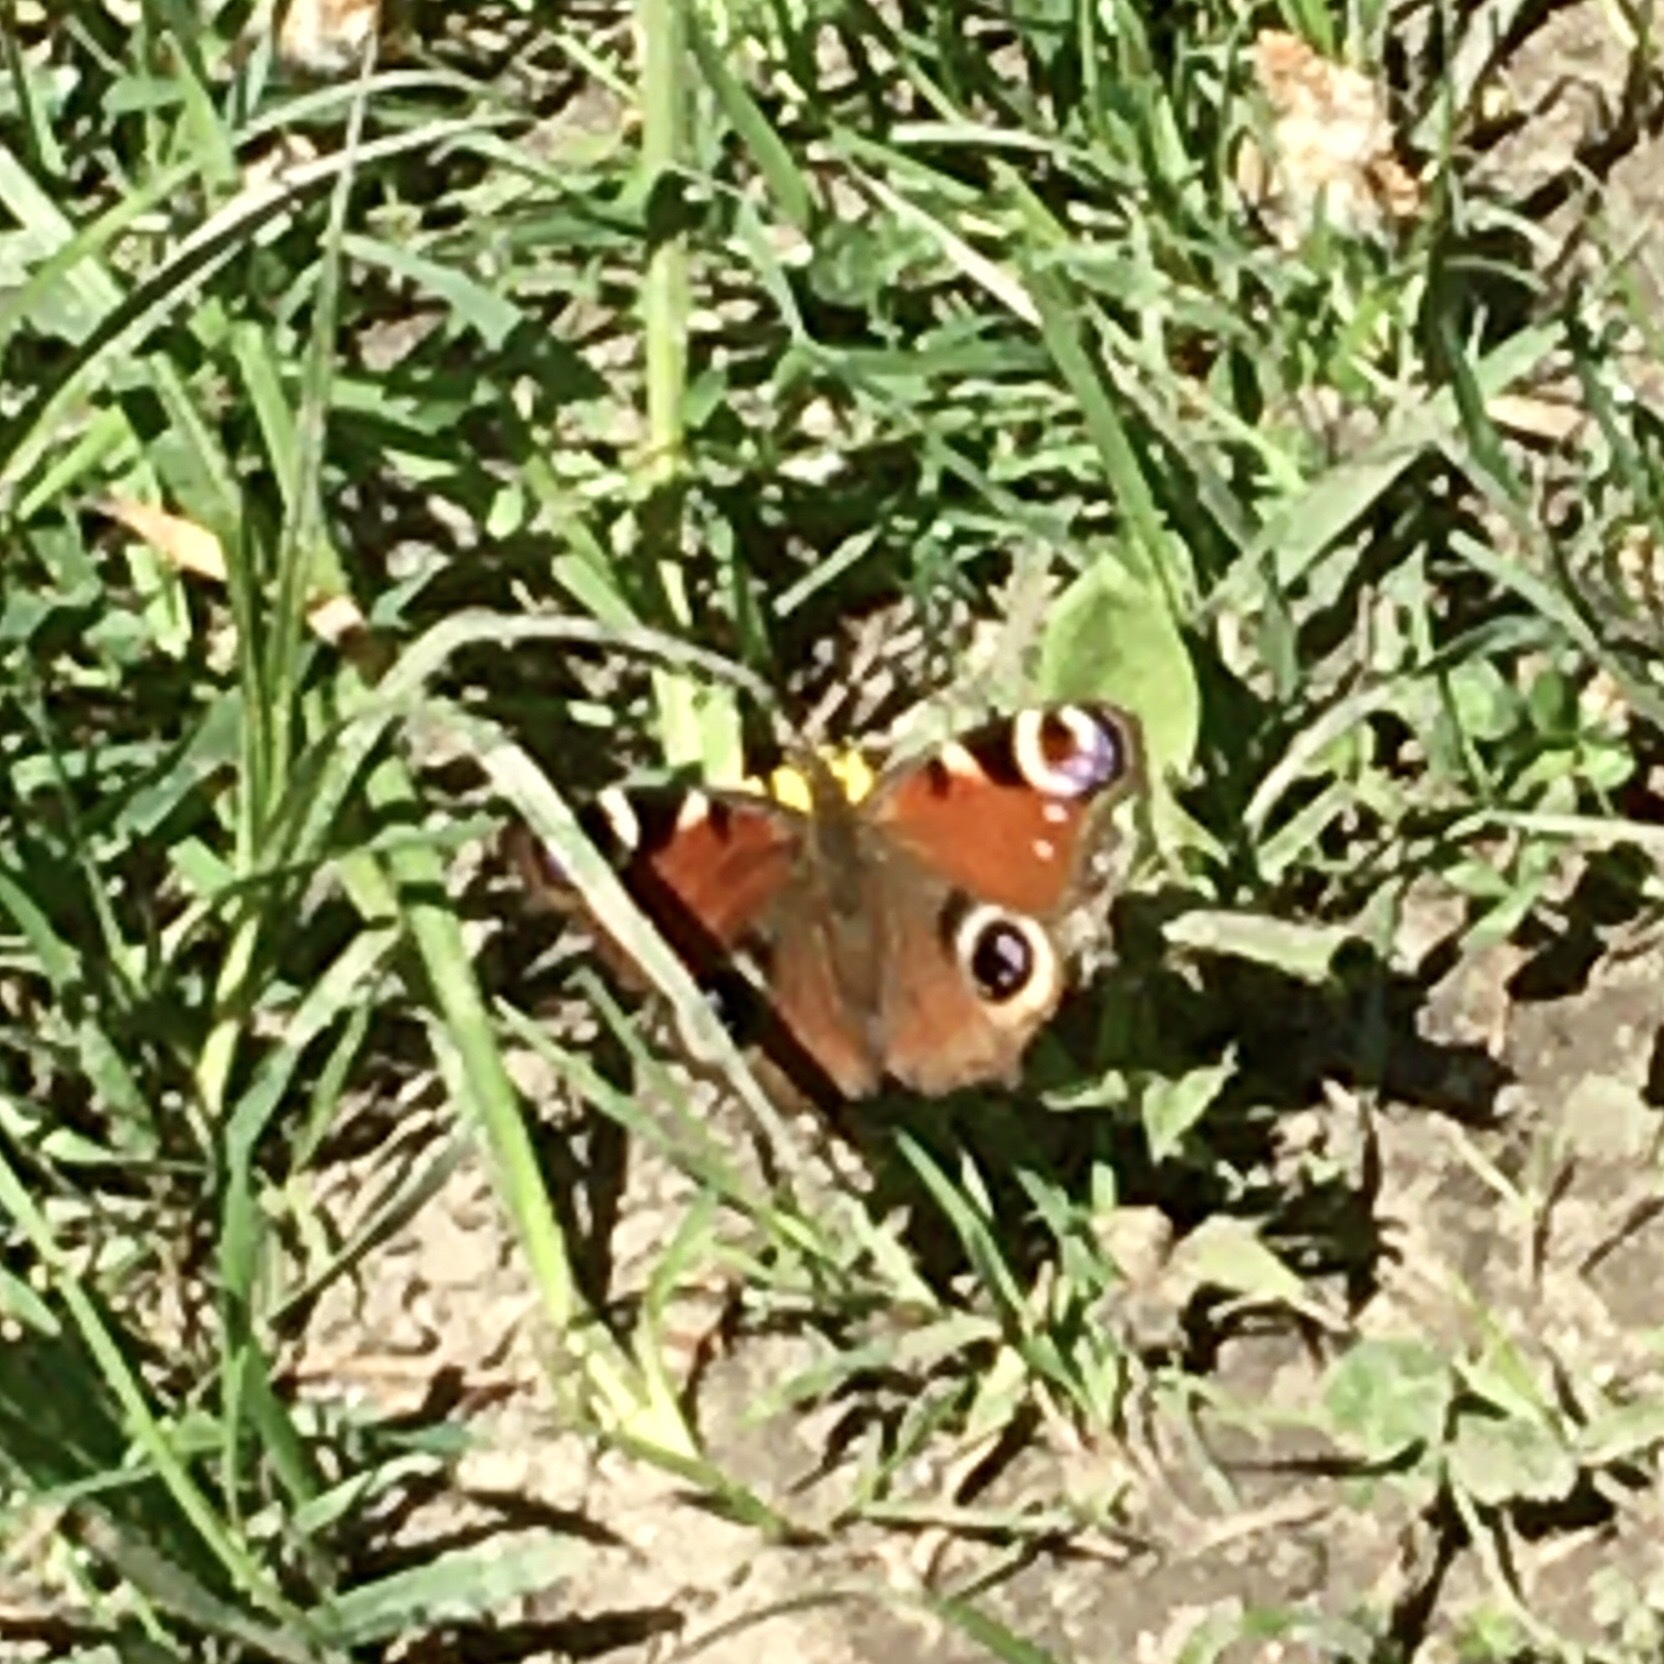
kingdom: Animalia
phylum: Arthropoda
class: Insecta
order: Lepidoptera
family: Nymphalidae
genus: Aglais
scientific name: Aglais io
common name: Peacock
